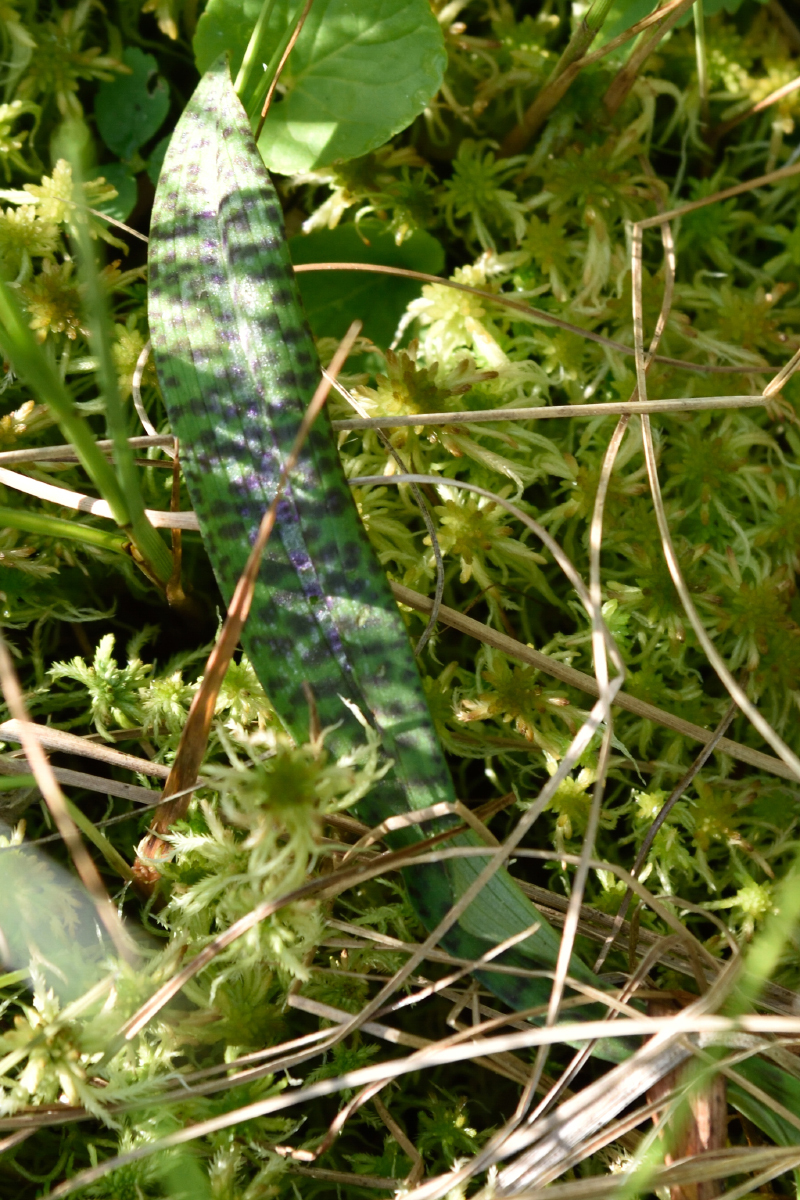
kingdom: Plantae
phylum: Tracheophyta
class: Liliopsida
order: Asparagales
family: Orchidaceae
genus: Dactylorhiza
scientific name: Dactylorhiza maculata
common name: Heath spotted-orchid
